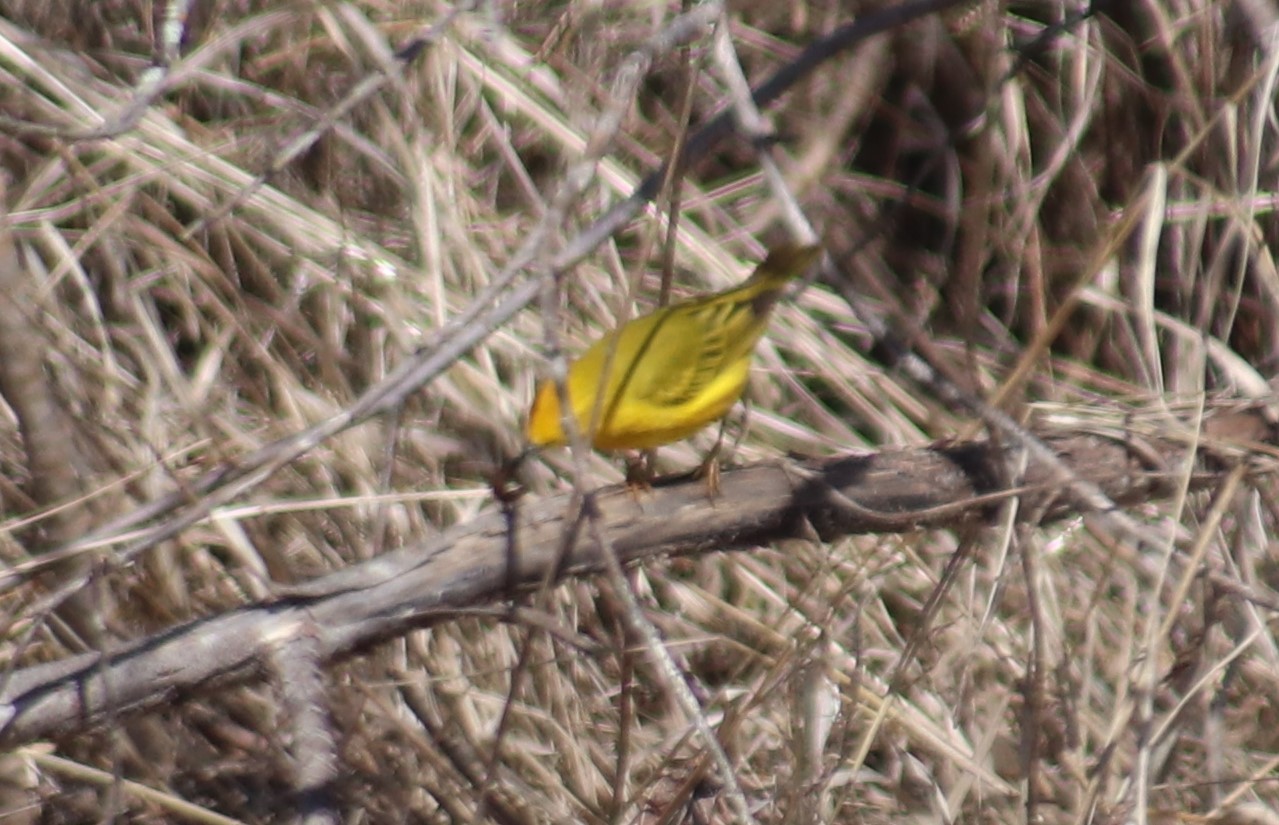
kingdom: Animalia
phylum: Chordata
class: Aves
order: Passeriformes
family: Parulidae
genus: Setophaga
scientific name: Setophaga petechia
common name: Yellow warbler
